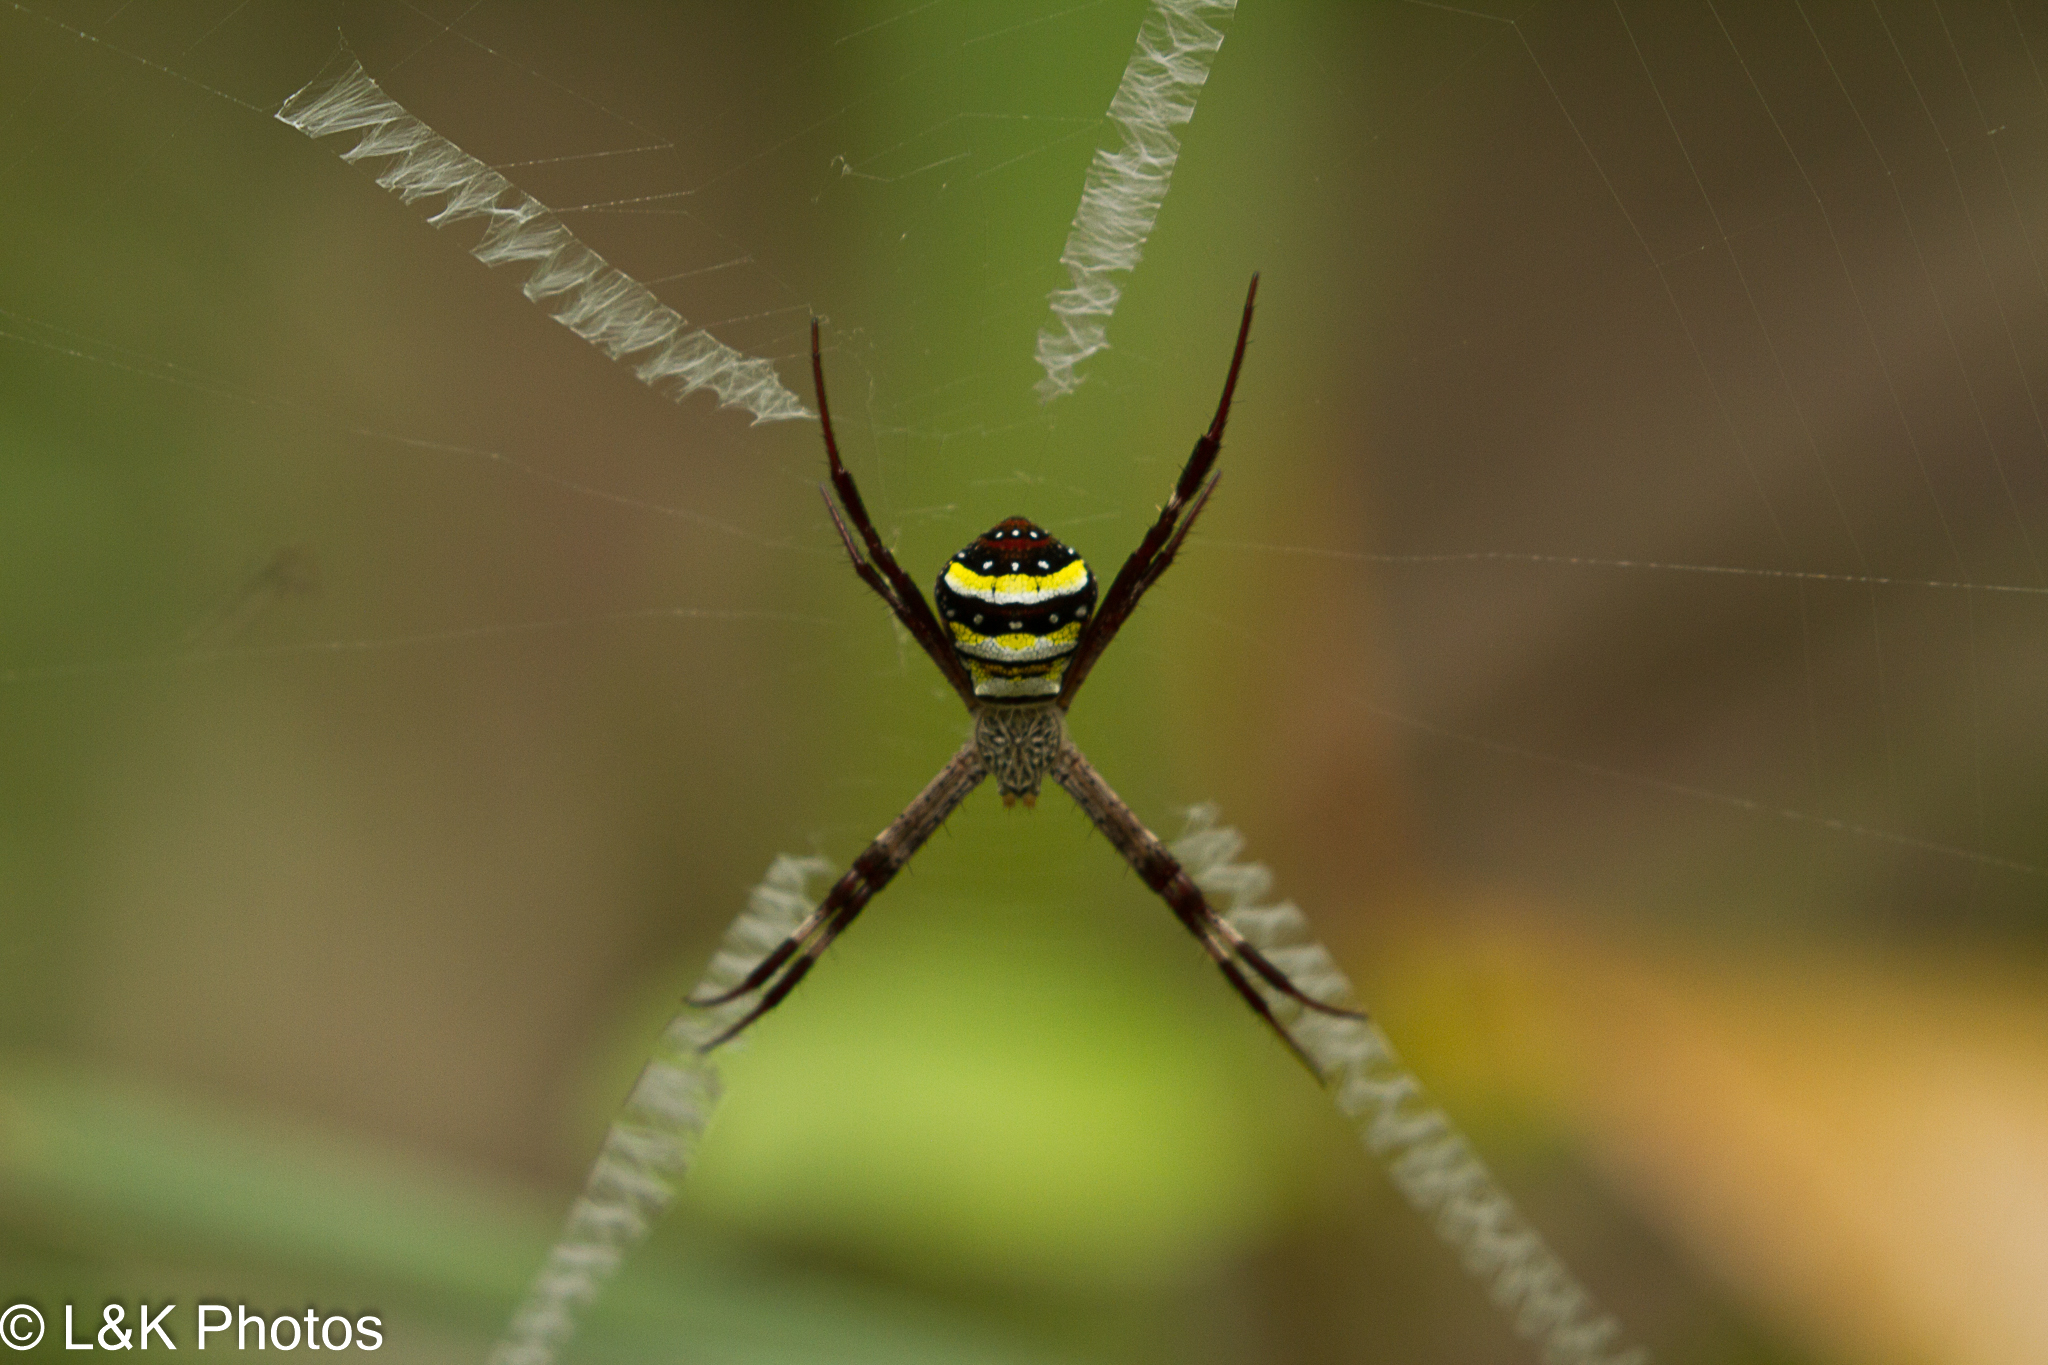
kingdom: Animalia
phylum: Arthropoda
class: Arachnida
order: Araneae
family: Araneidae
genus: Argiope
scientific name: Argiope aetherea
